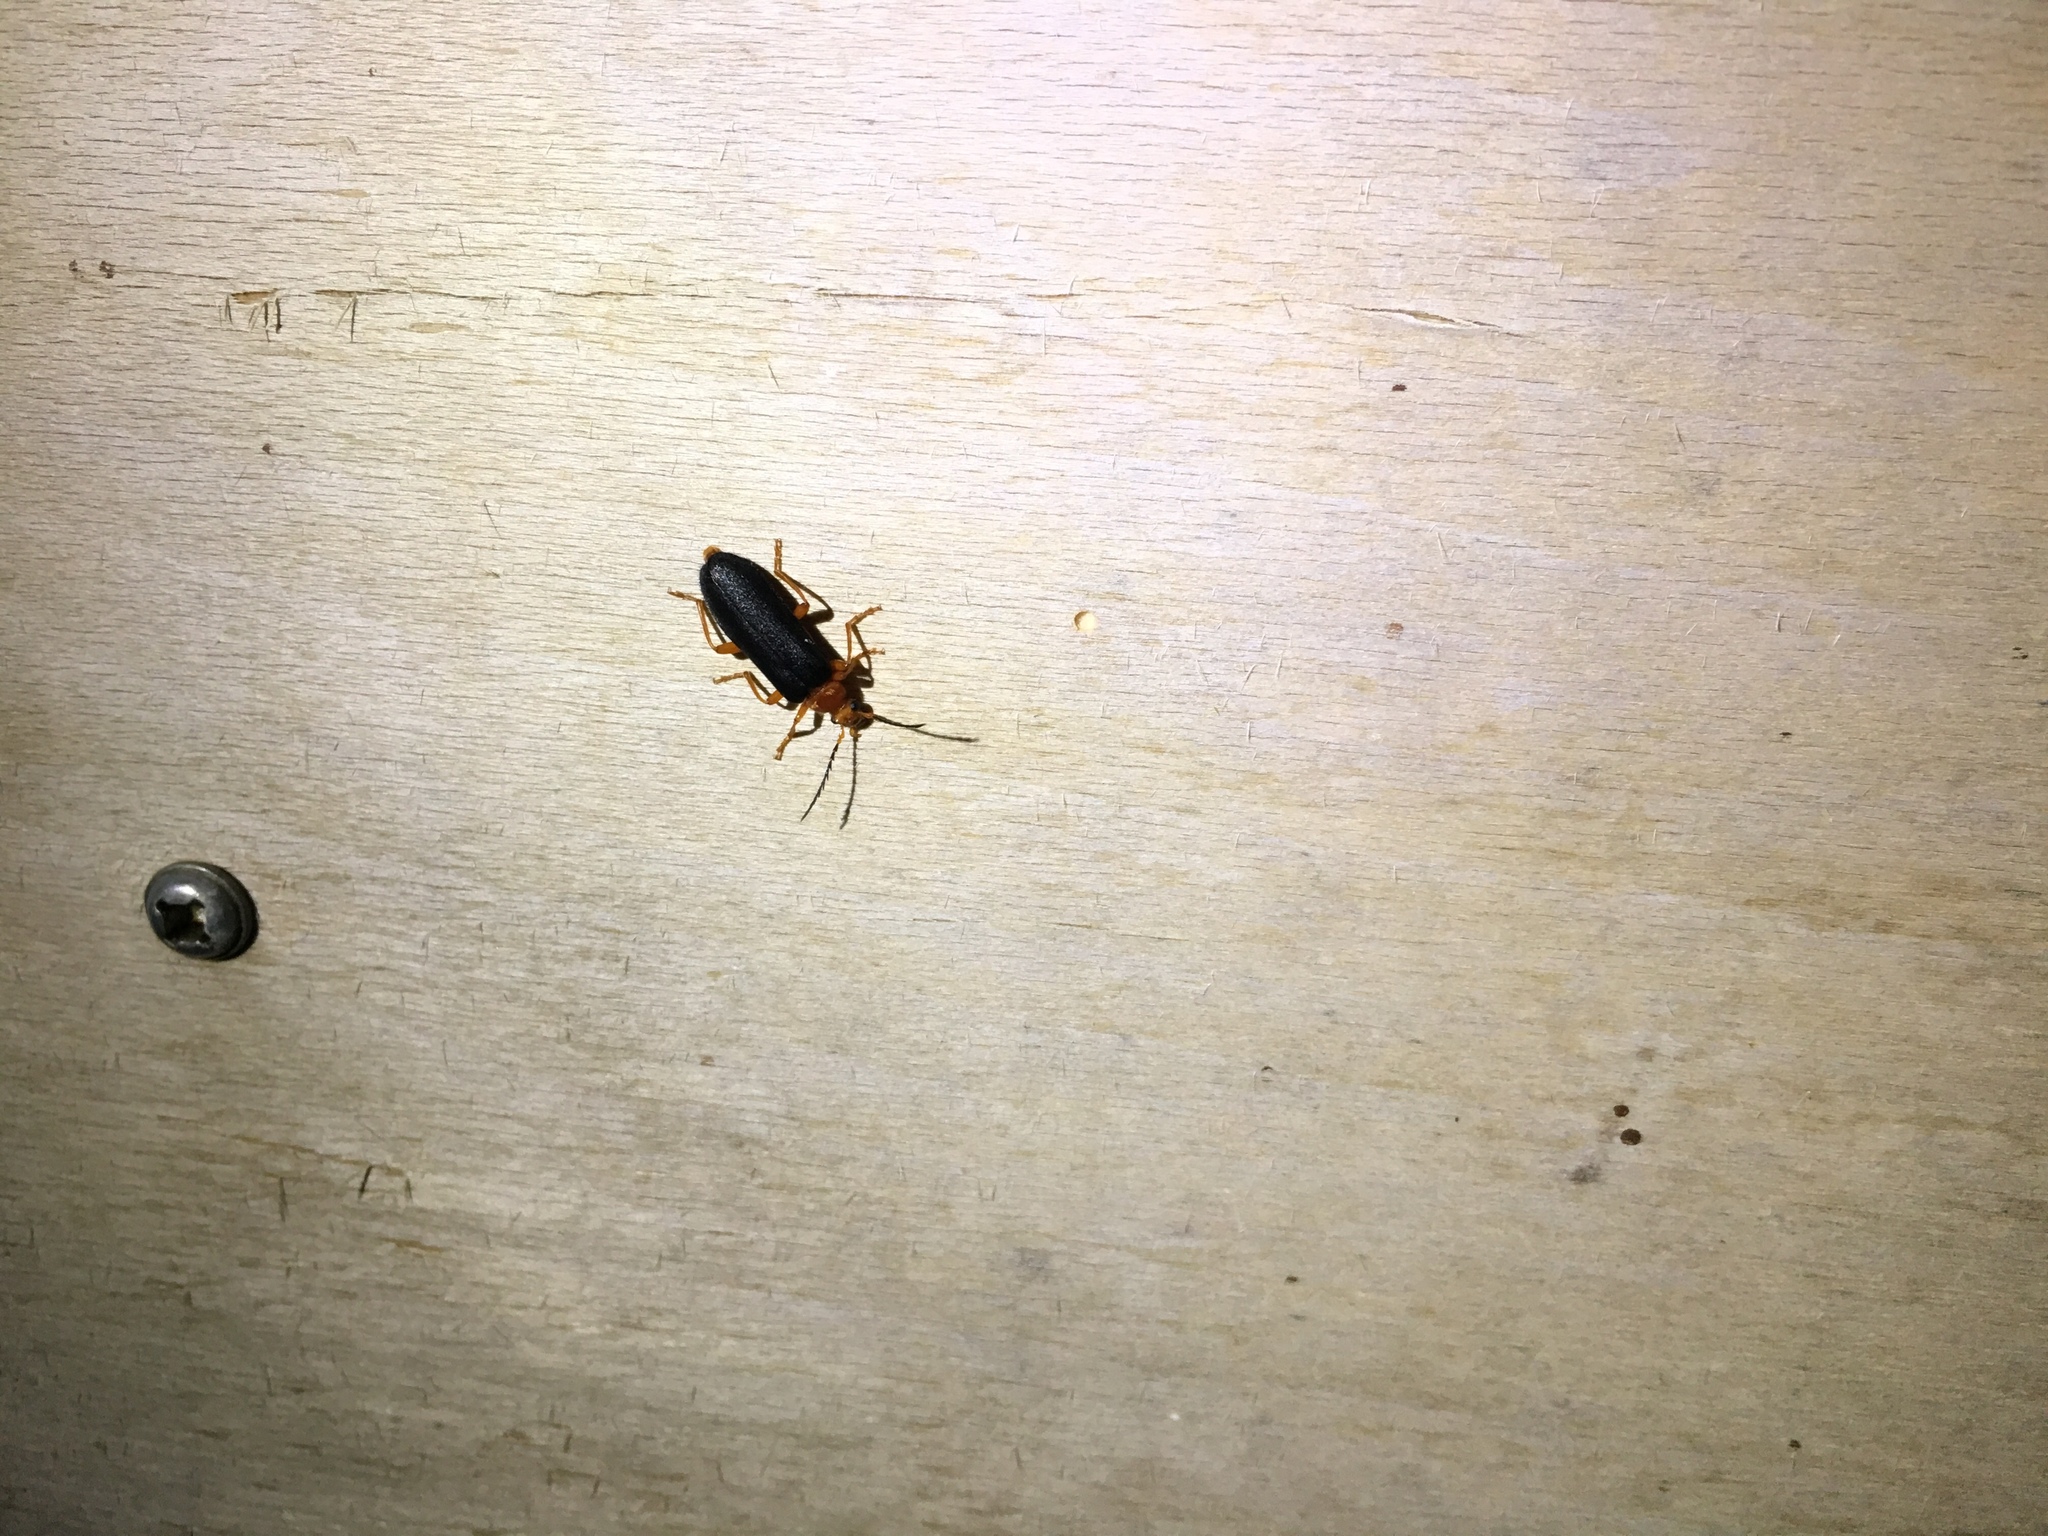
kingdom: Animalia
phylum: Arthropoda
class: Insecta
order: Coleoptera
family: Pyrochroidae
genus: Neopyrochroa
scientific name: Neopyrochroa flabellata
